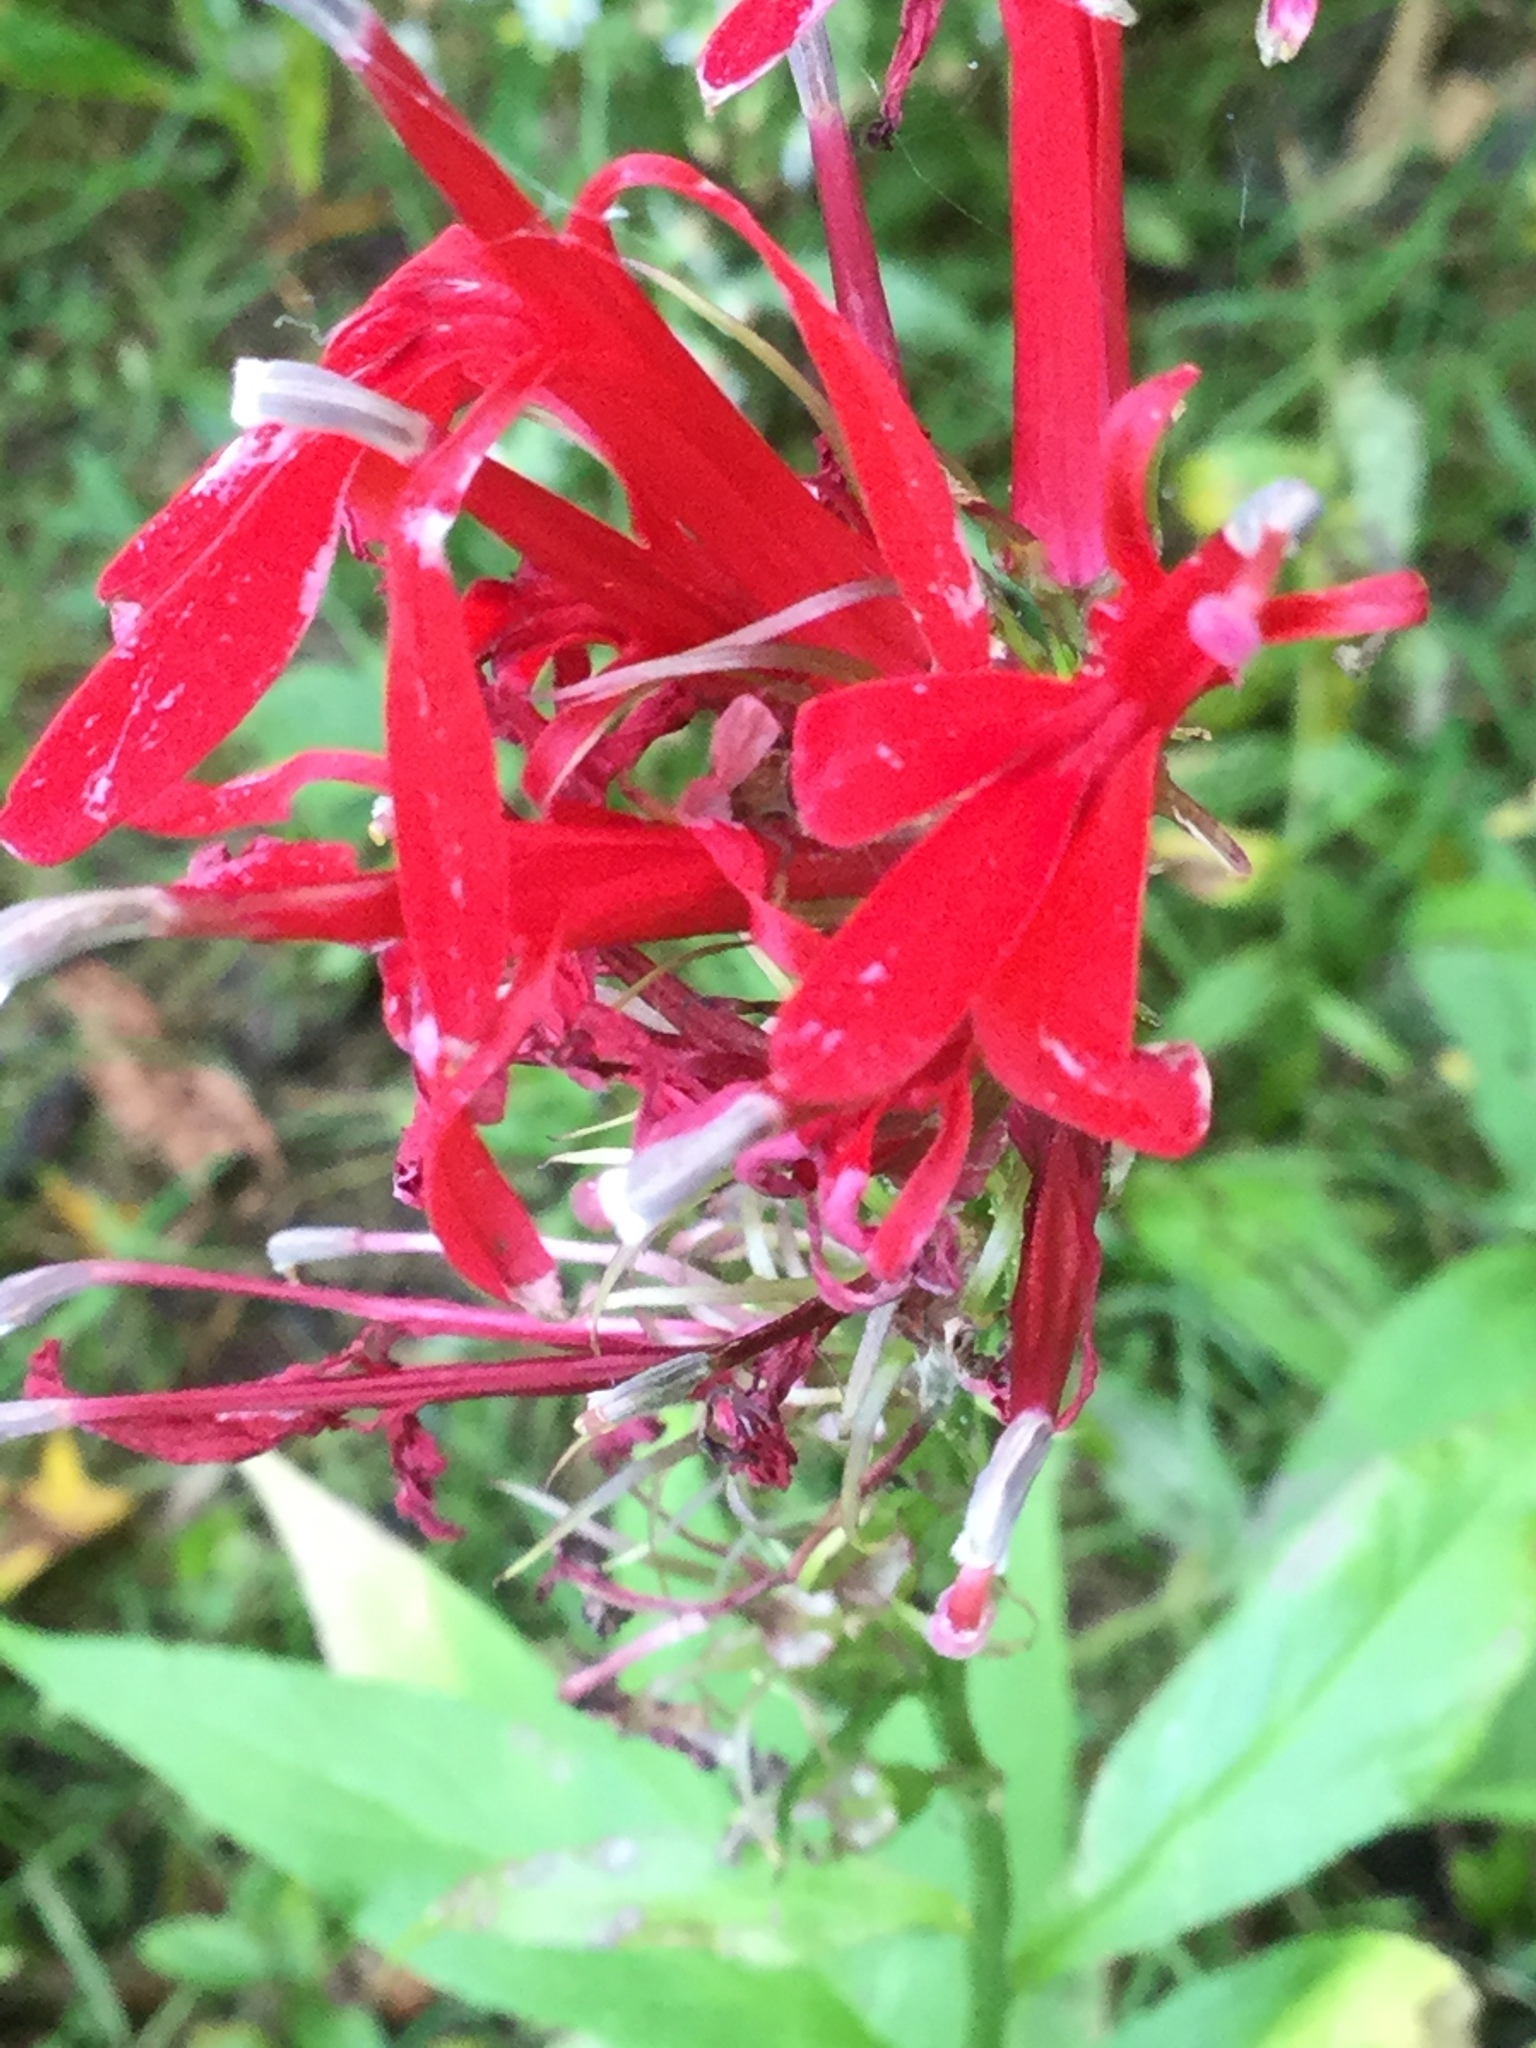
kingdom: Plantae
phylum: Tracheophyta
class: Magnoliopsida
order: Asterales
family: Campanulaceae
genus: Lobelia
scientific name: Lobelia cardinalis
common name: Cardinal flower
